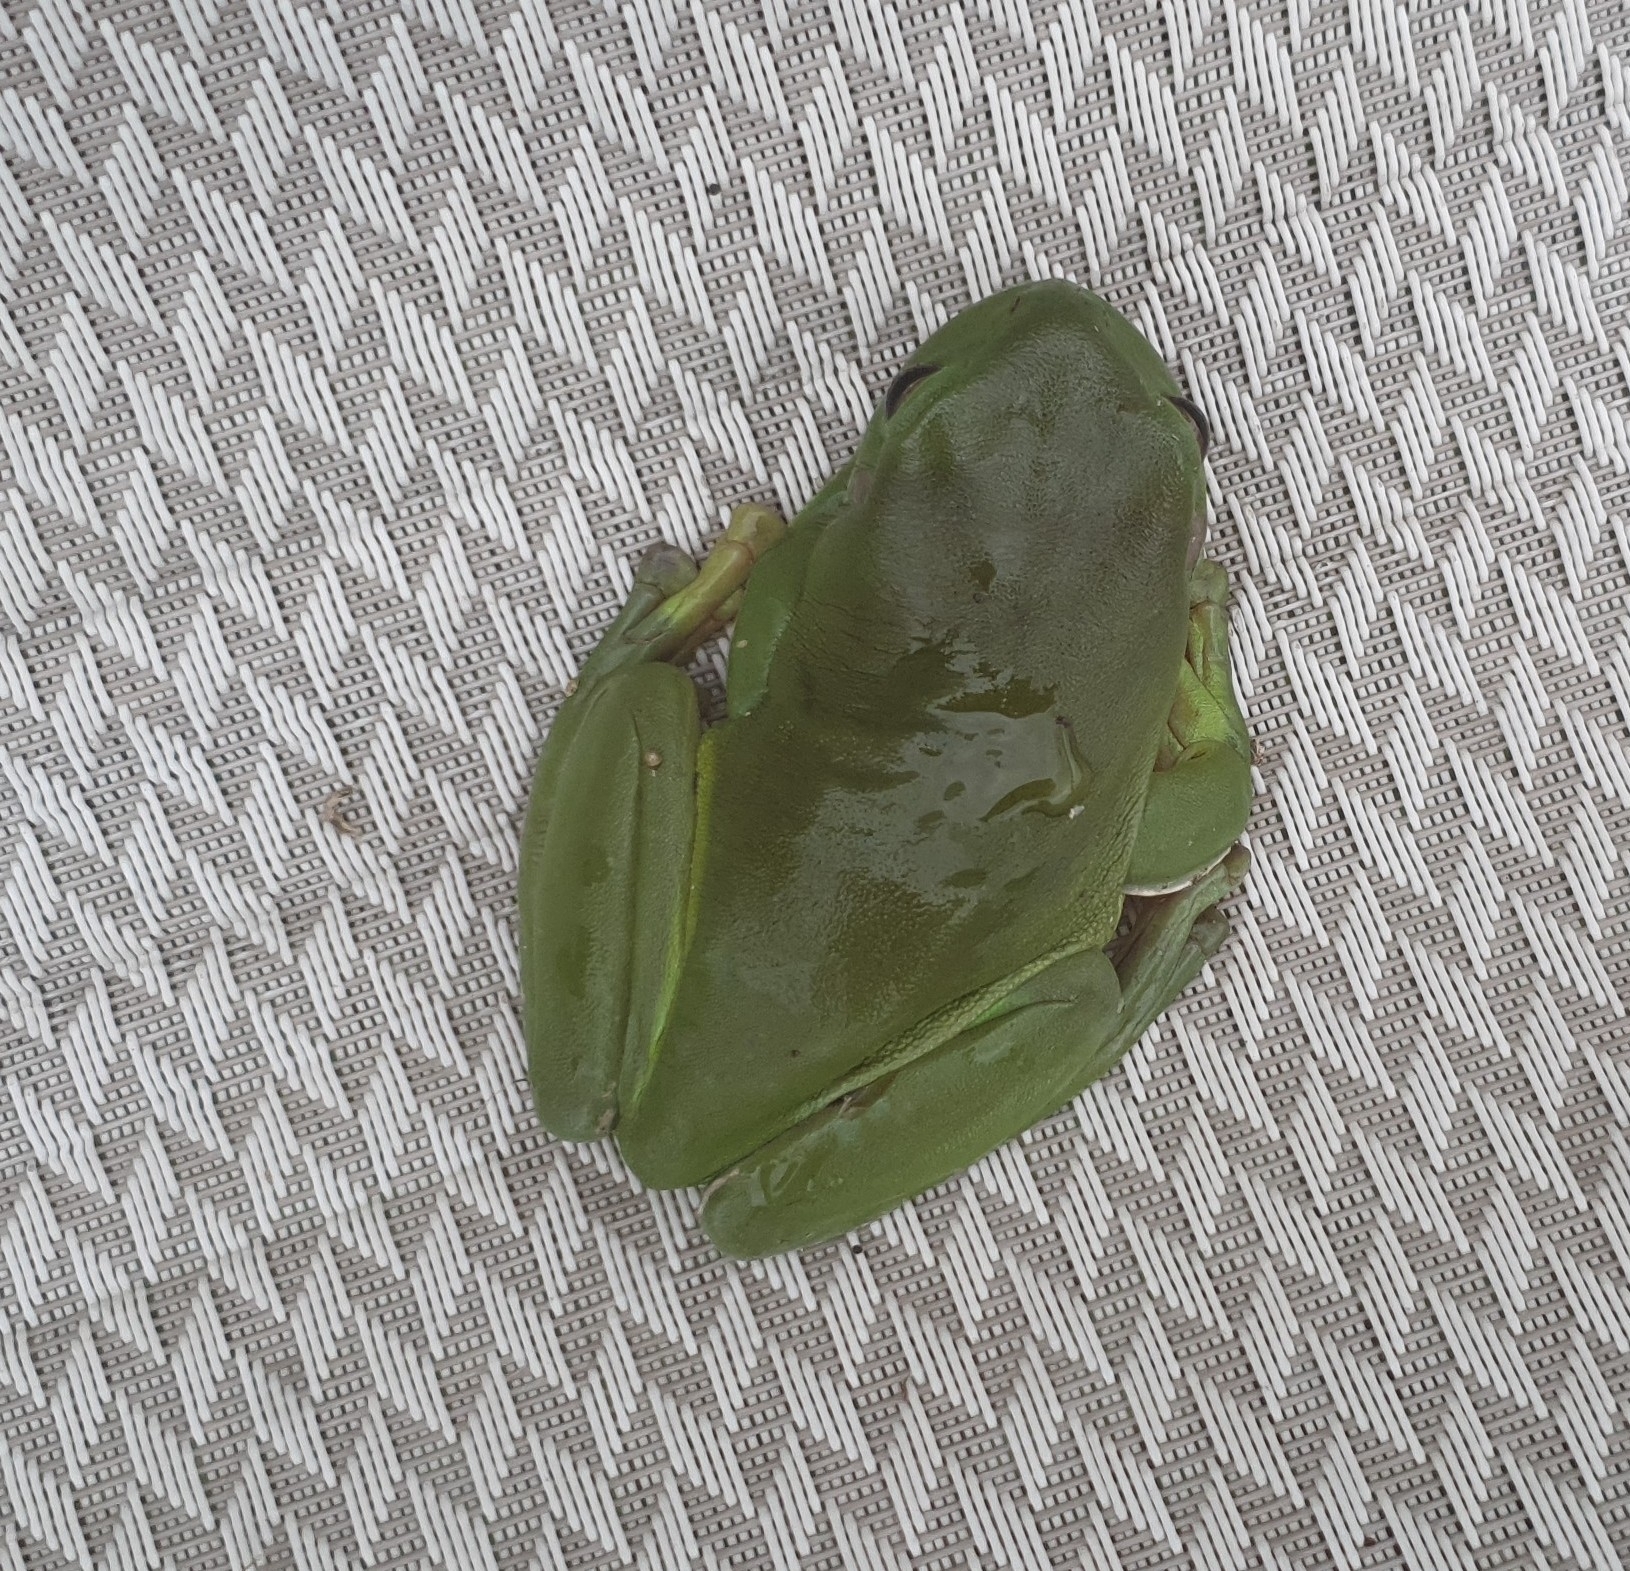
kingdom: Animalia
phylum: Chordata
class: Amphibia
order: Anura
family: Pelodryadidae
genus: Ranoidea
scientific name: Ranoidea caerulea
